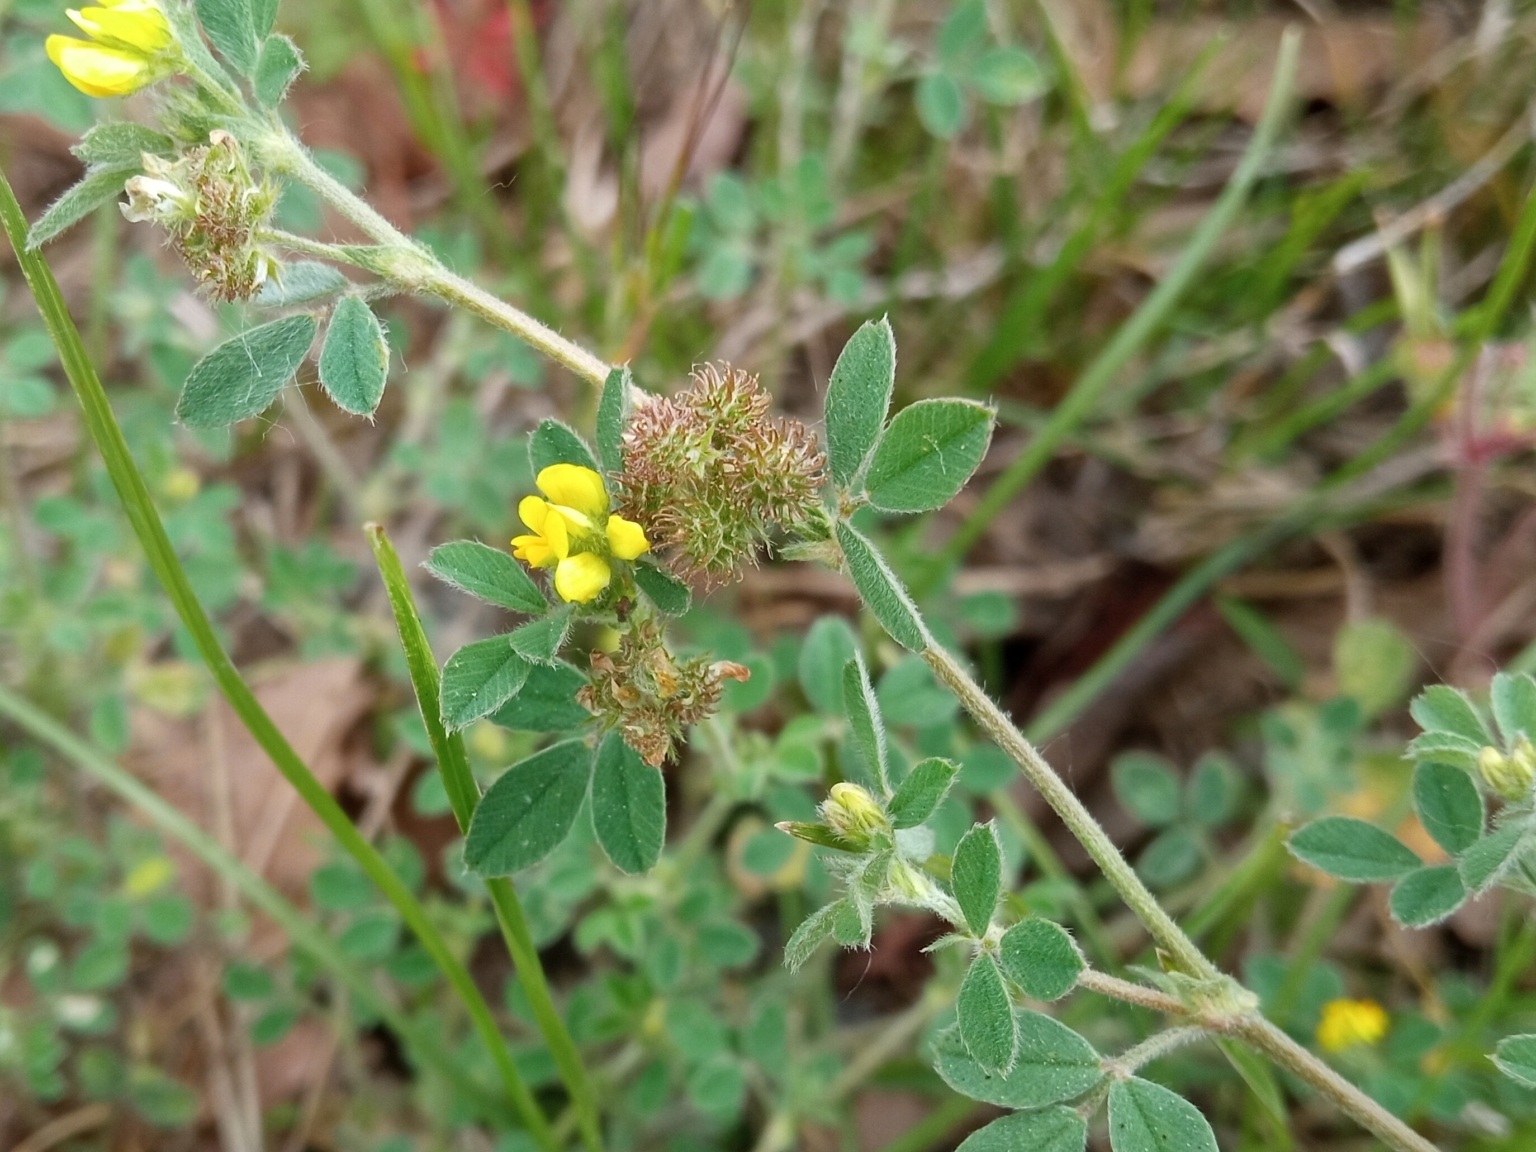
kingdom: Plantae
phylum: Tracheophyta
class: Magnoliopsida
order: Fabales
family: Fabaceae
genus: Medicago
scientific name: Medicago minima
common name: Little bur-clover
